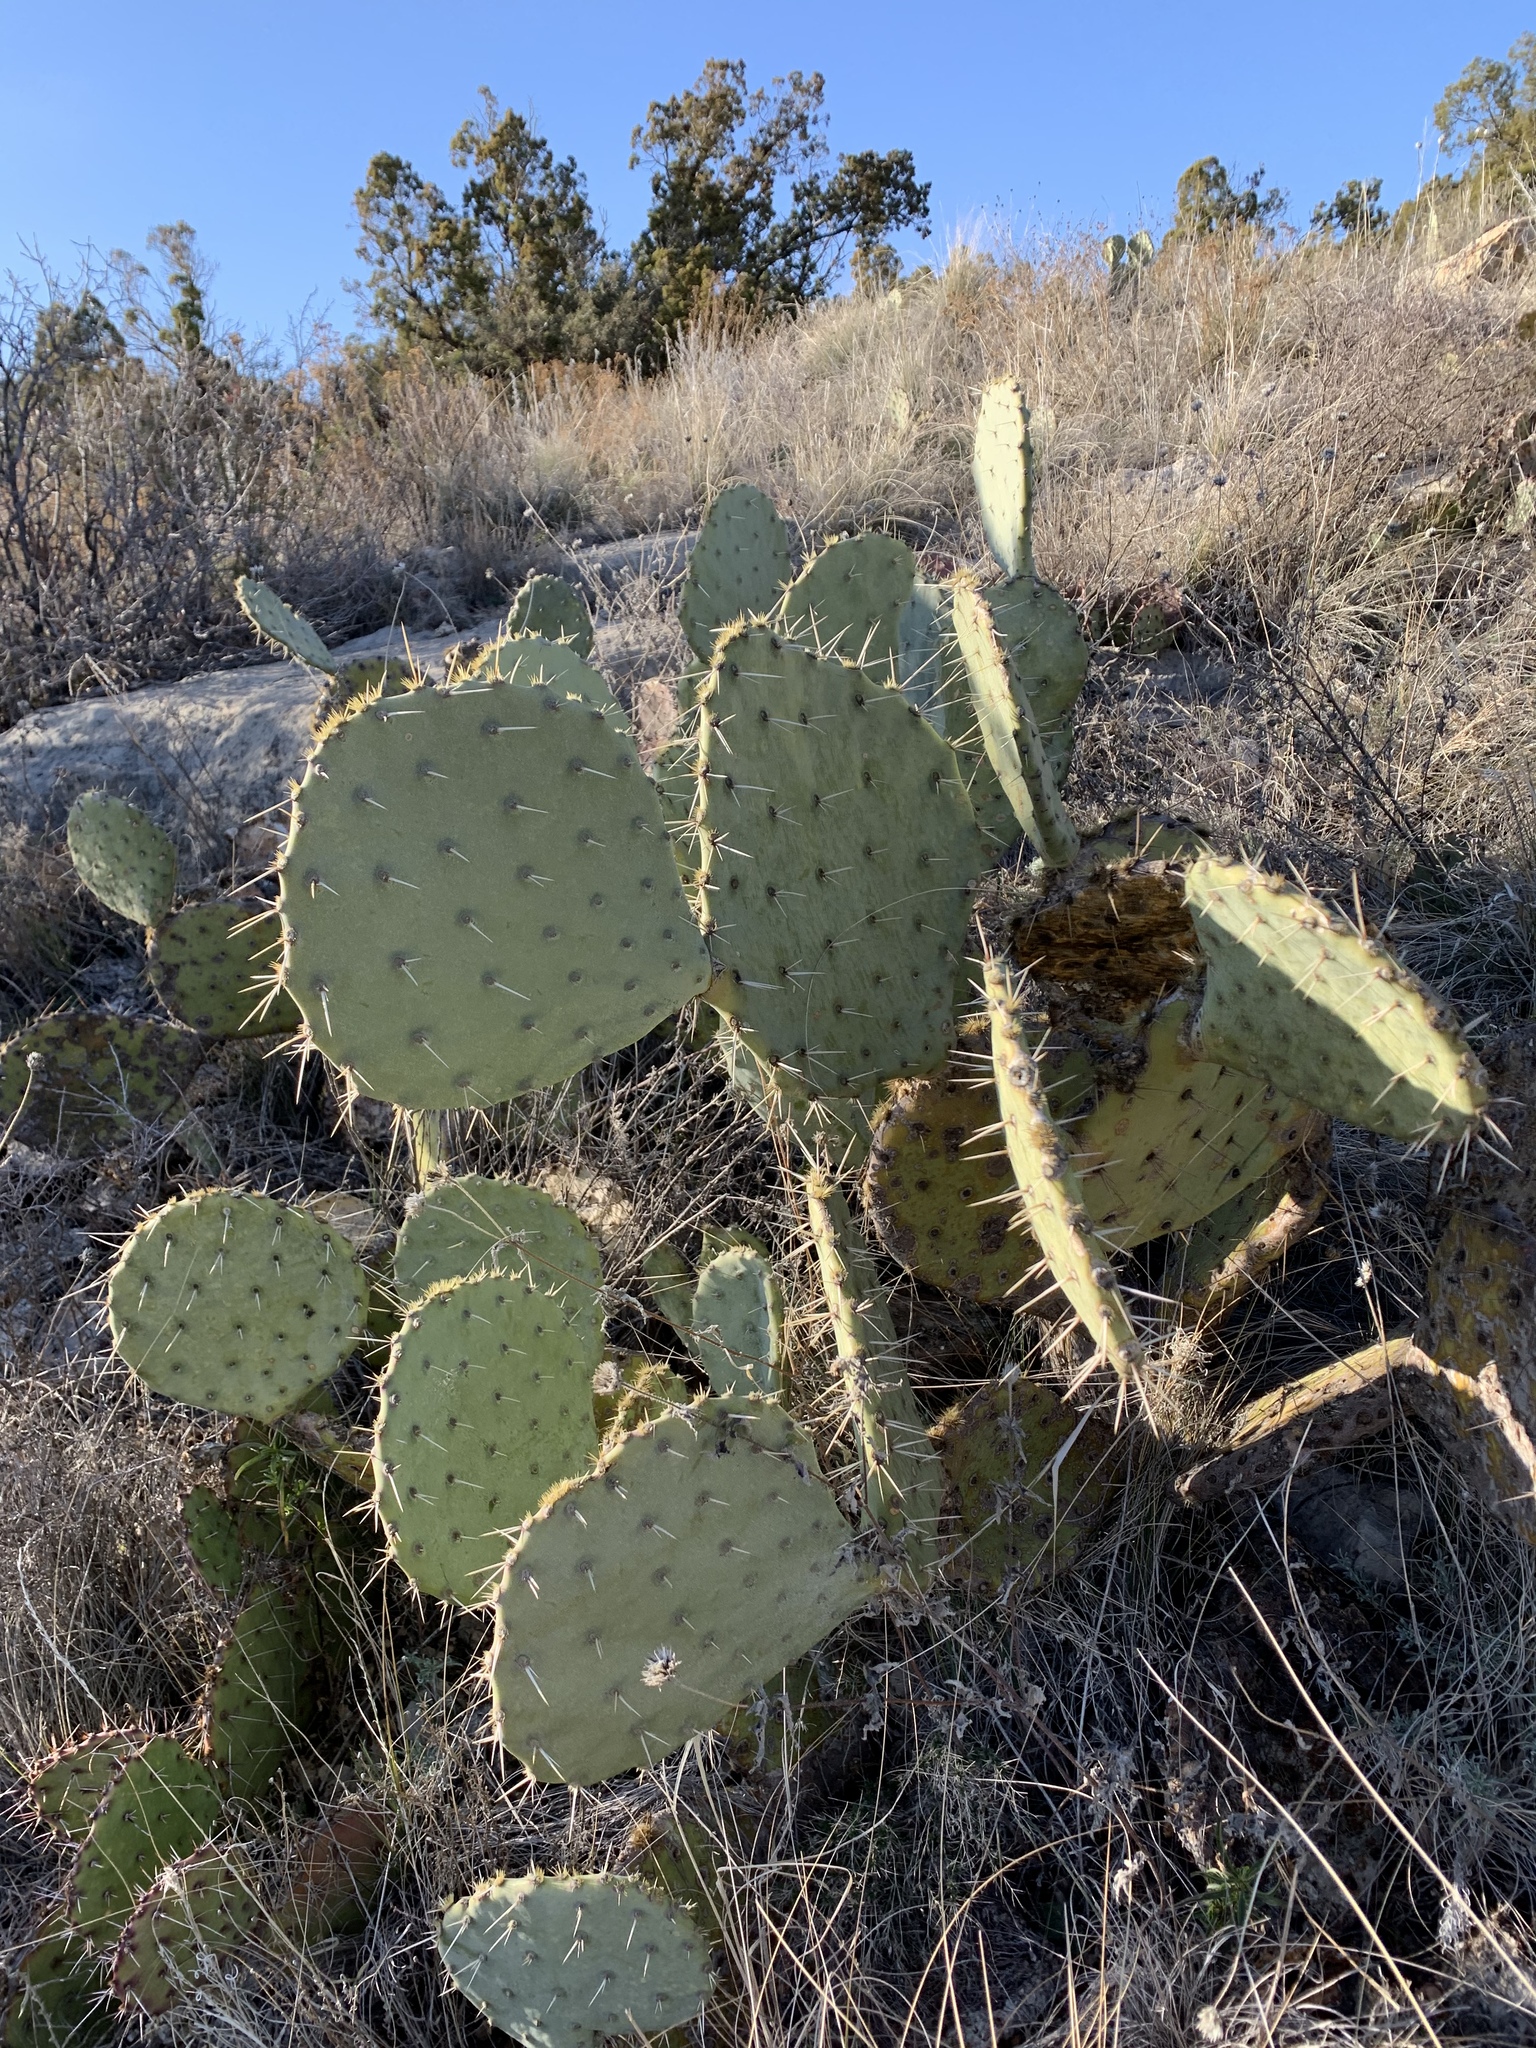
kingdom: Plantae
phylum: Tracheophyta
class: Magnoliopsida
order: Caryophyllales
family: Cactaceae
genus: Opuntia
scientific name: Opuntia engelmannii
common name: Cactus-apple
